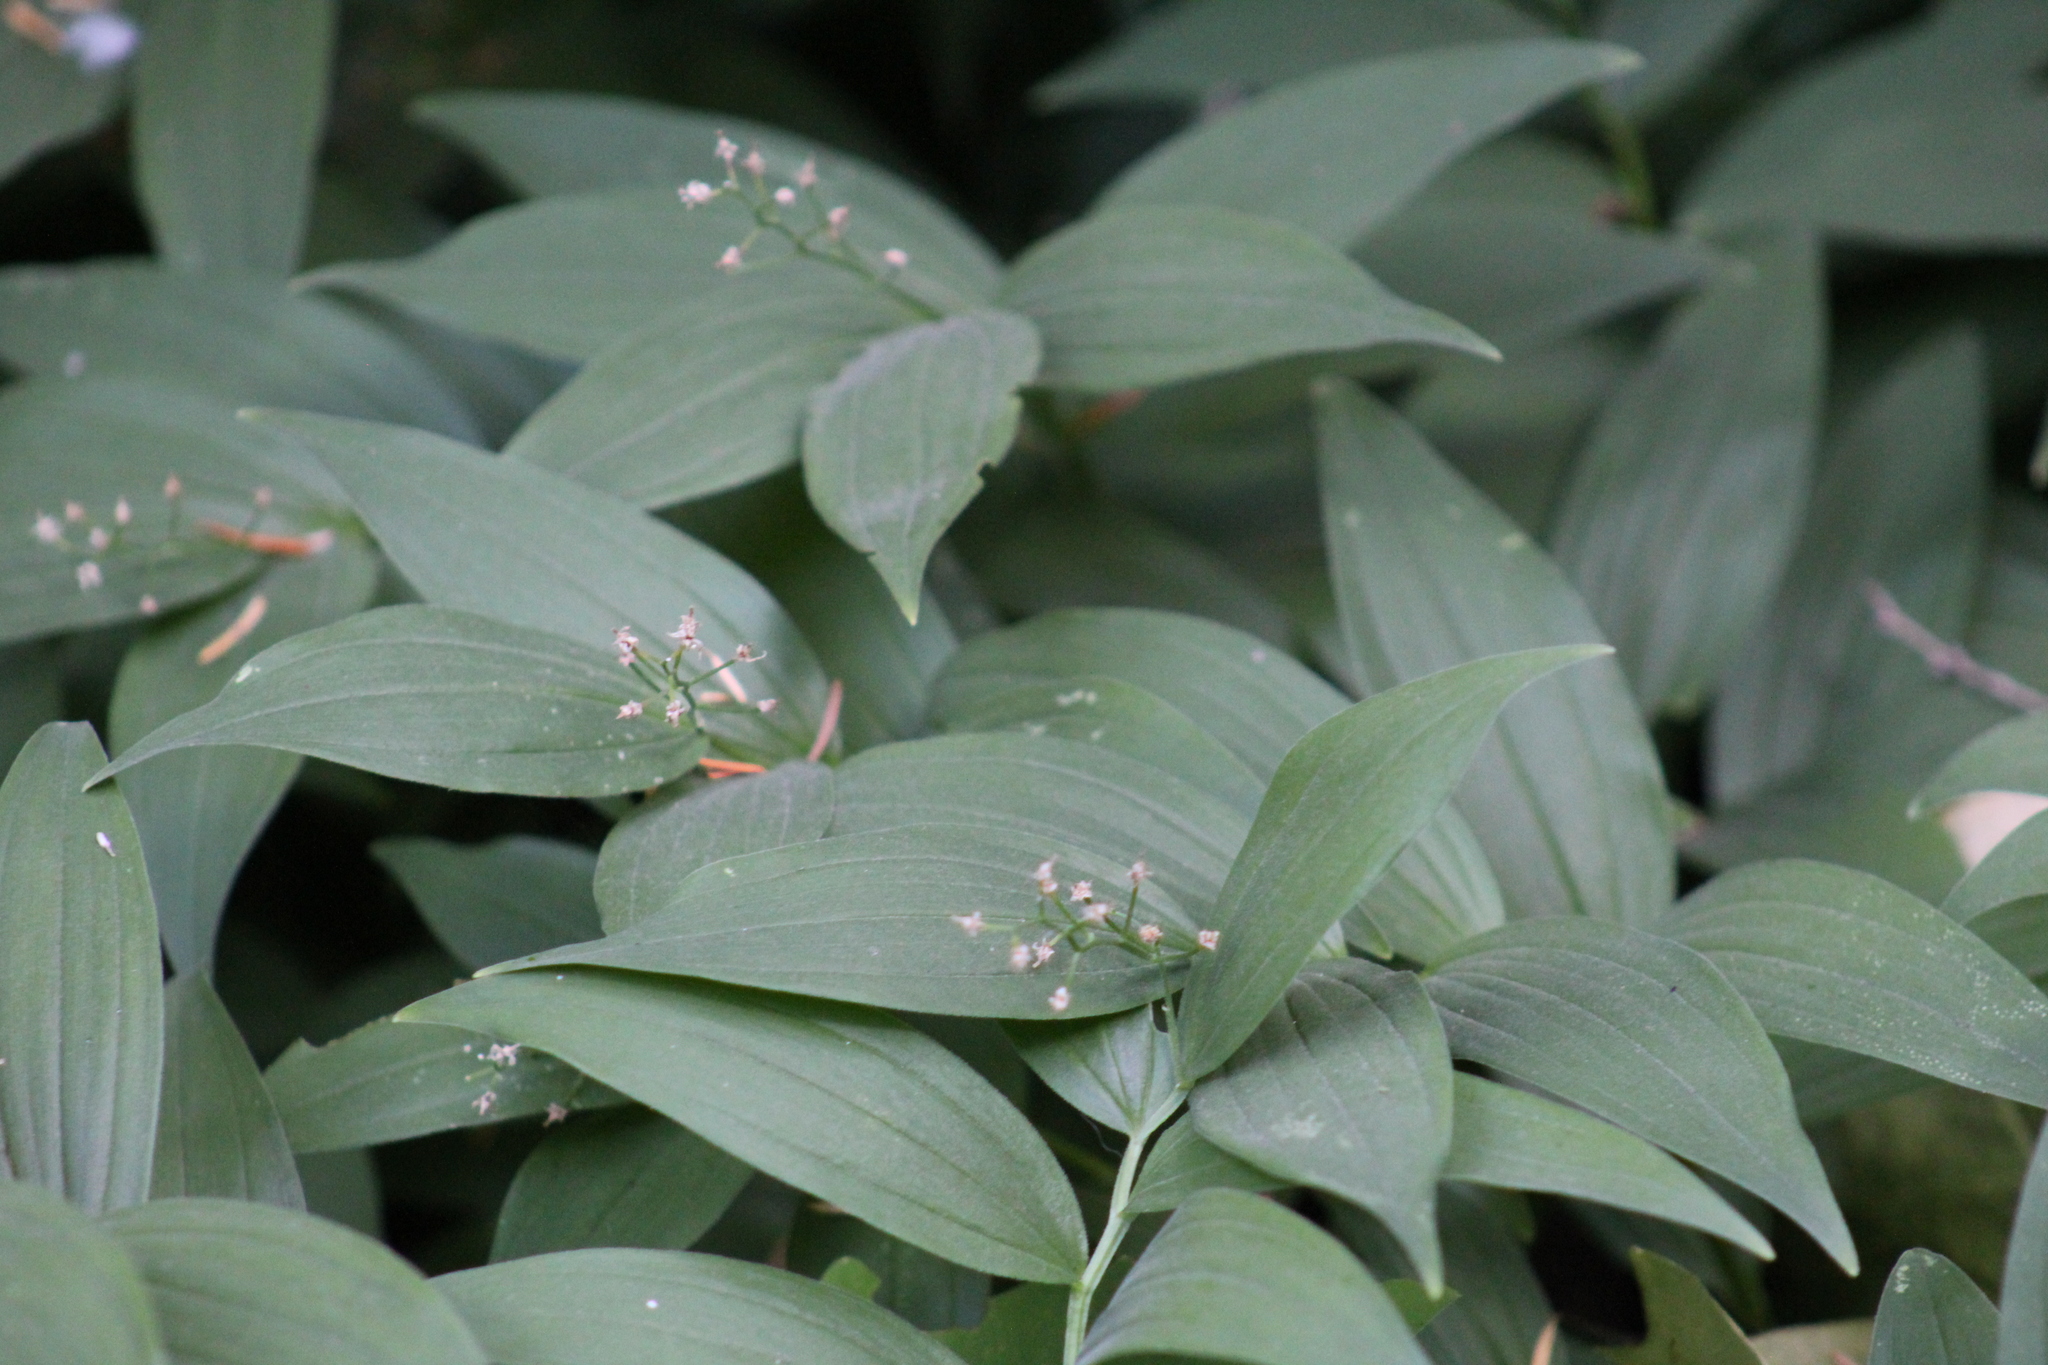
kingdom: Plantae
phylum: Tracheophyta
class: Liliopsida
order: Asparagales
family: Asparagaceae
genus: Maianthemum
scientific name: Maianthemum stellatum
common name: Little false solomon's seal
